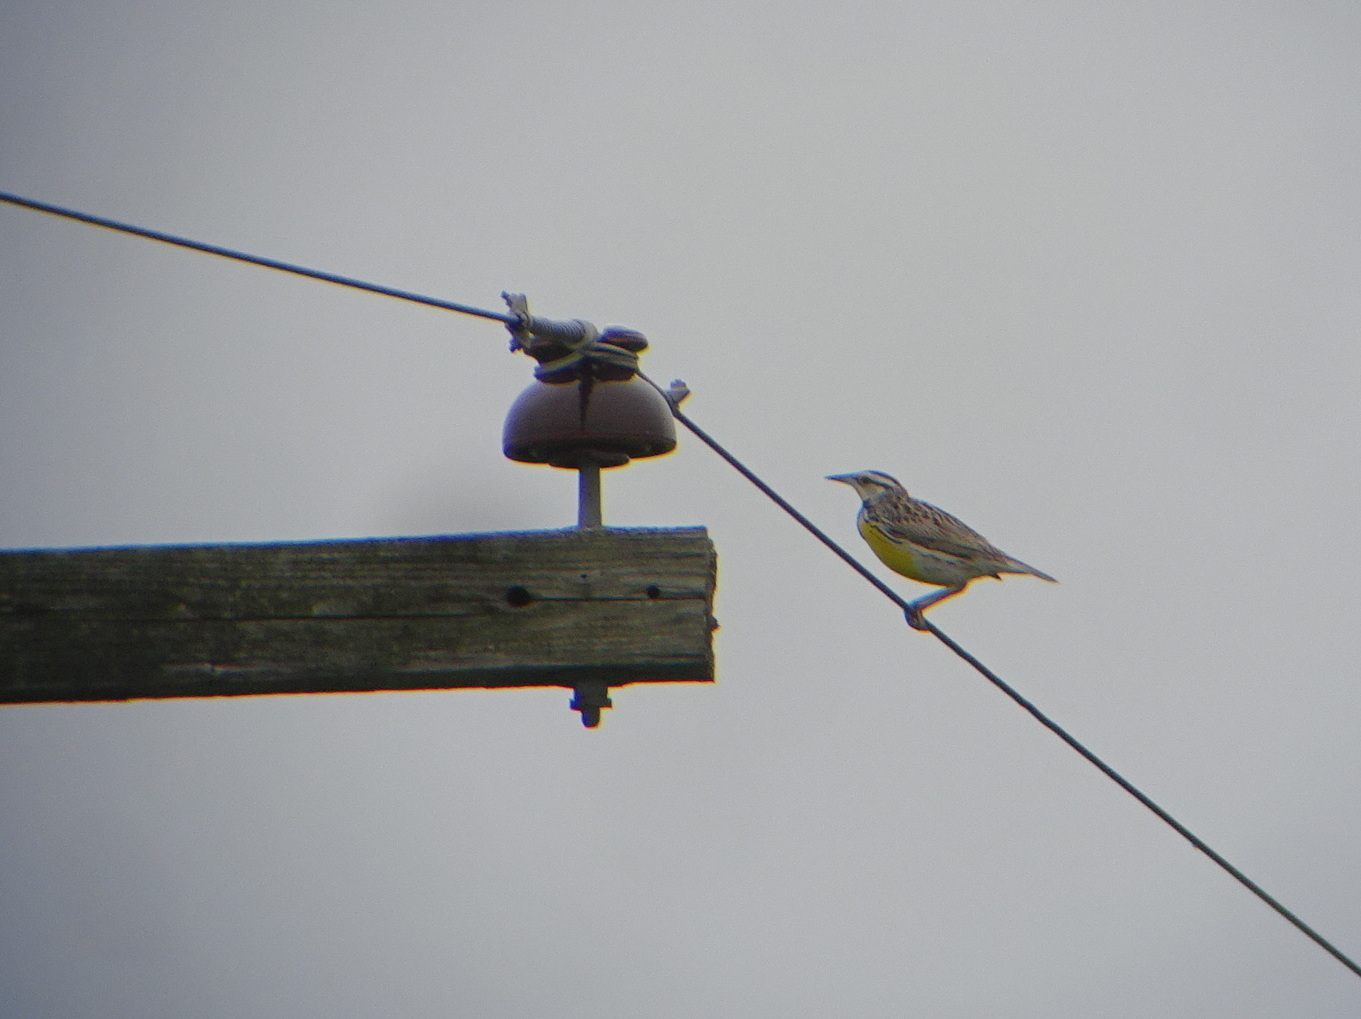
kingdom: Animalia
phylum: Chordata
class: Aves
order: Passeriformes
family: Icteridae
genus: Sturnella
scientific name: Sturnella magna
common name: Eastern meadowlark
